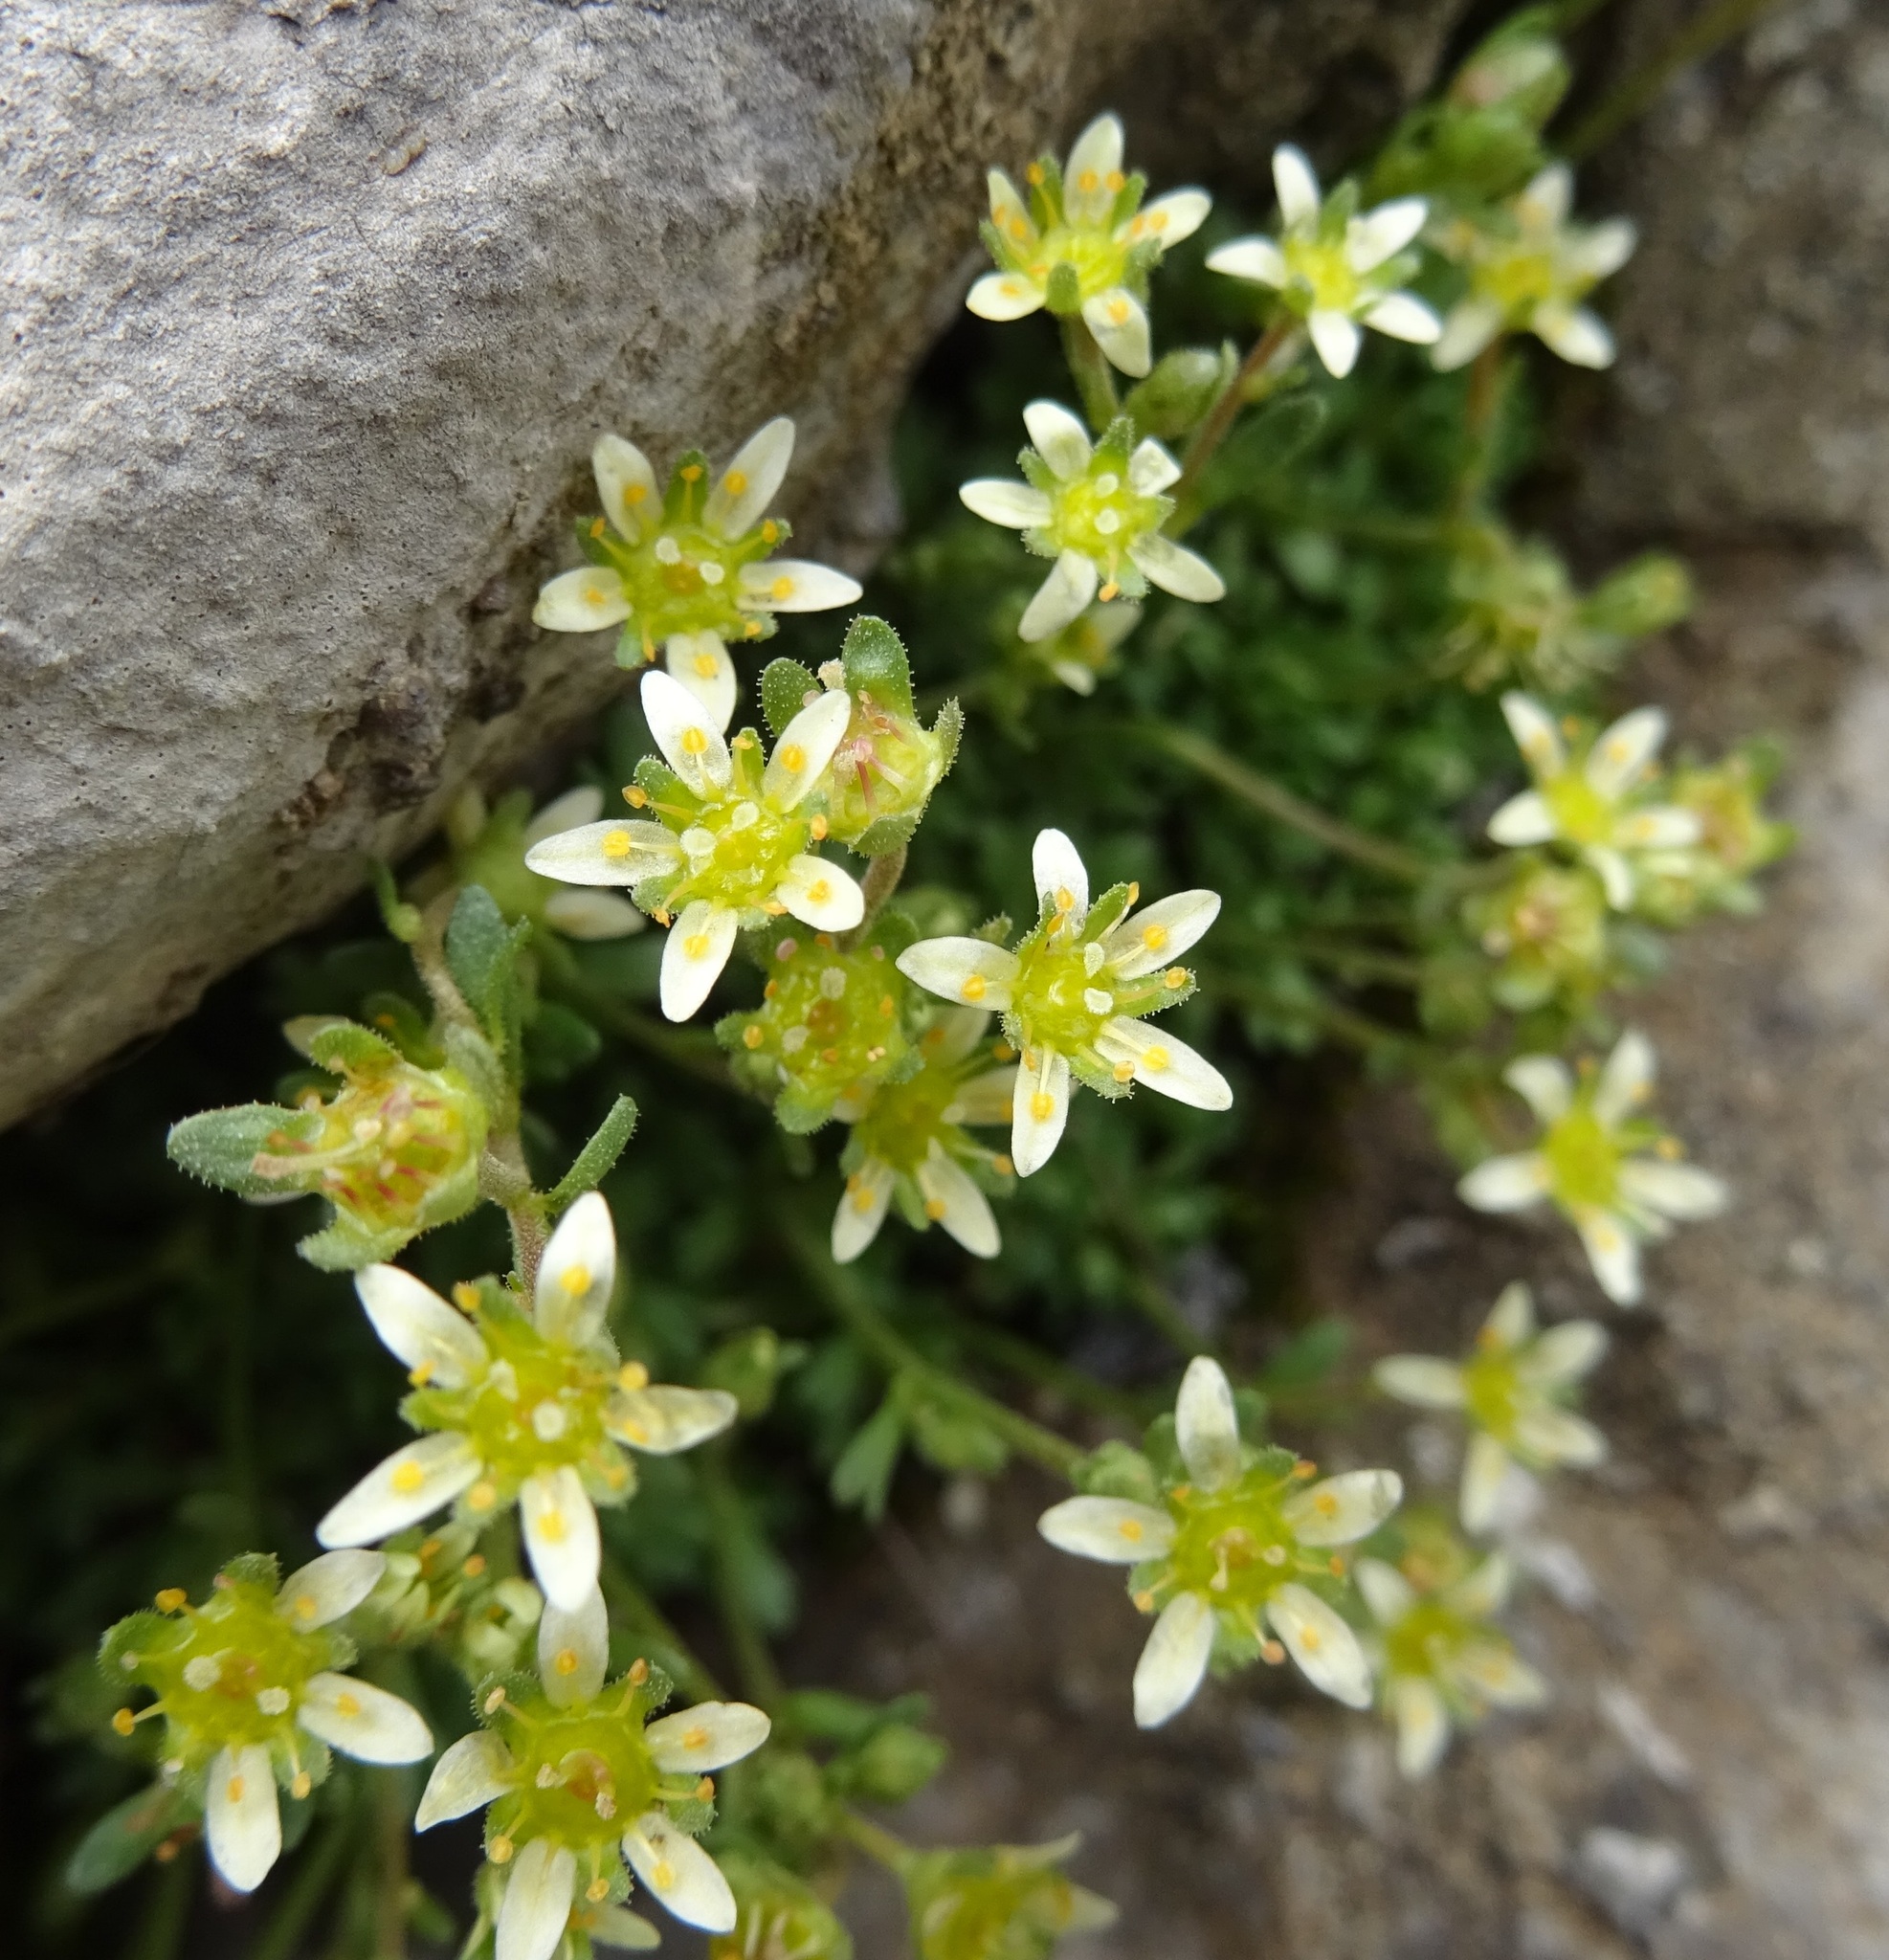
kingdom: Plantae
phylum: Tracheophyta
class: Magnoliopsida
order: Saxifragales
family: Saxifragaceae
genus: Saxifraga
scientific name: Saxifraga exarata
